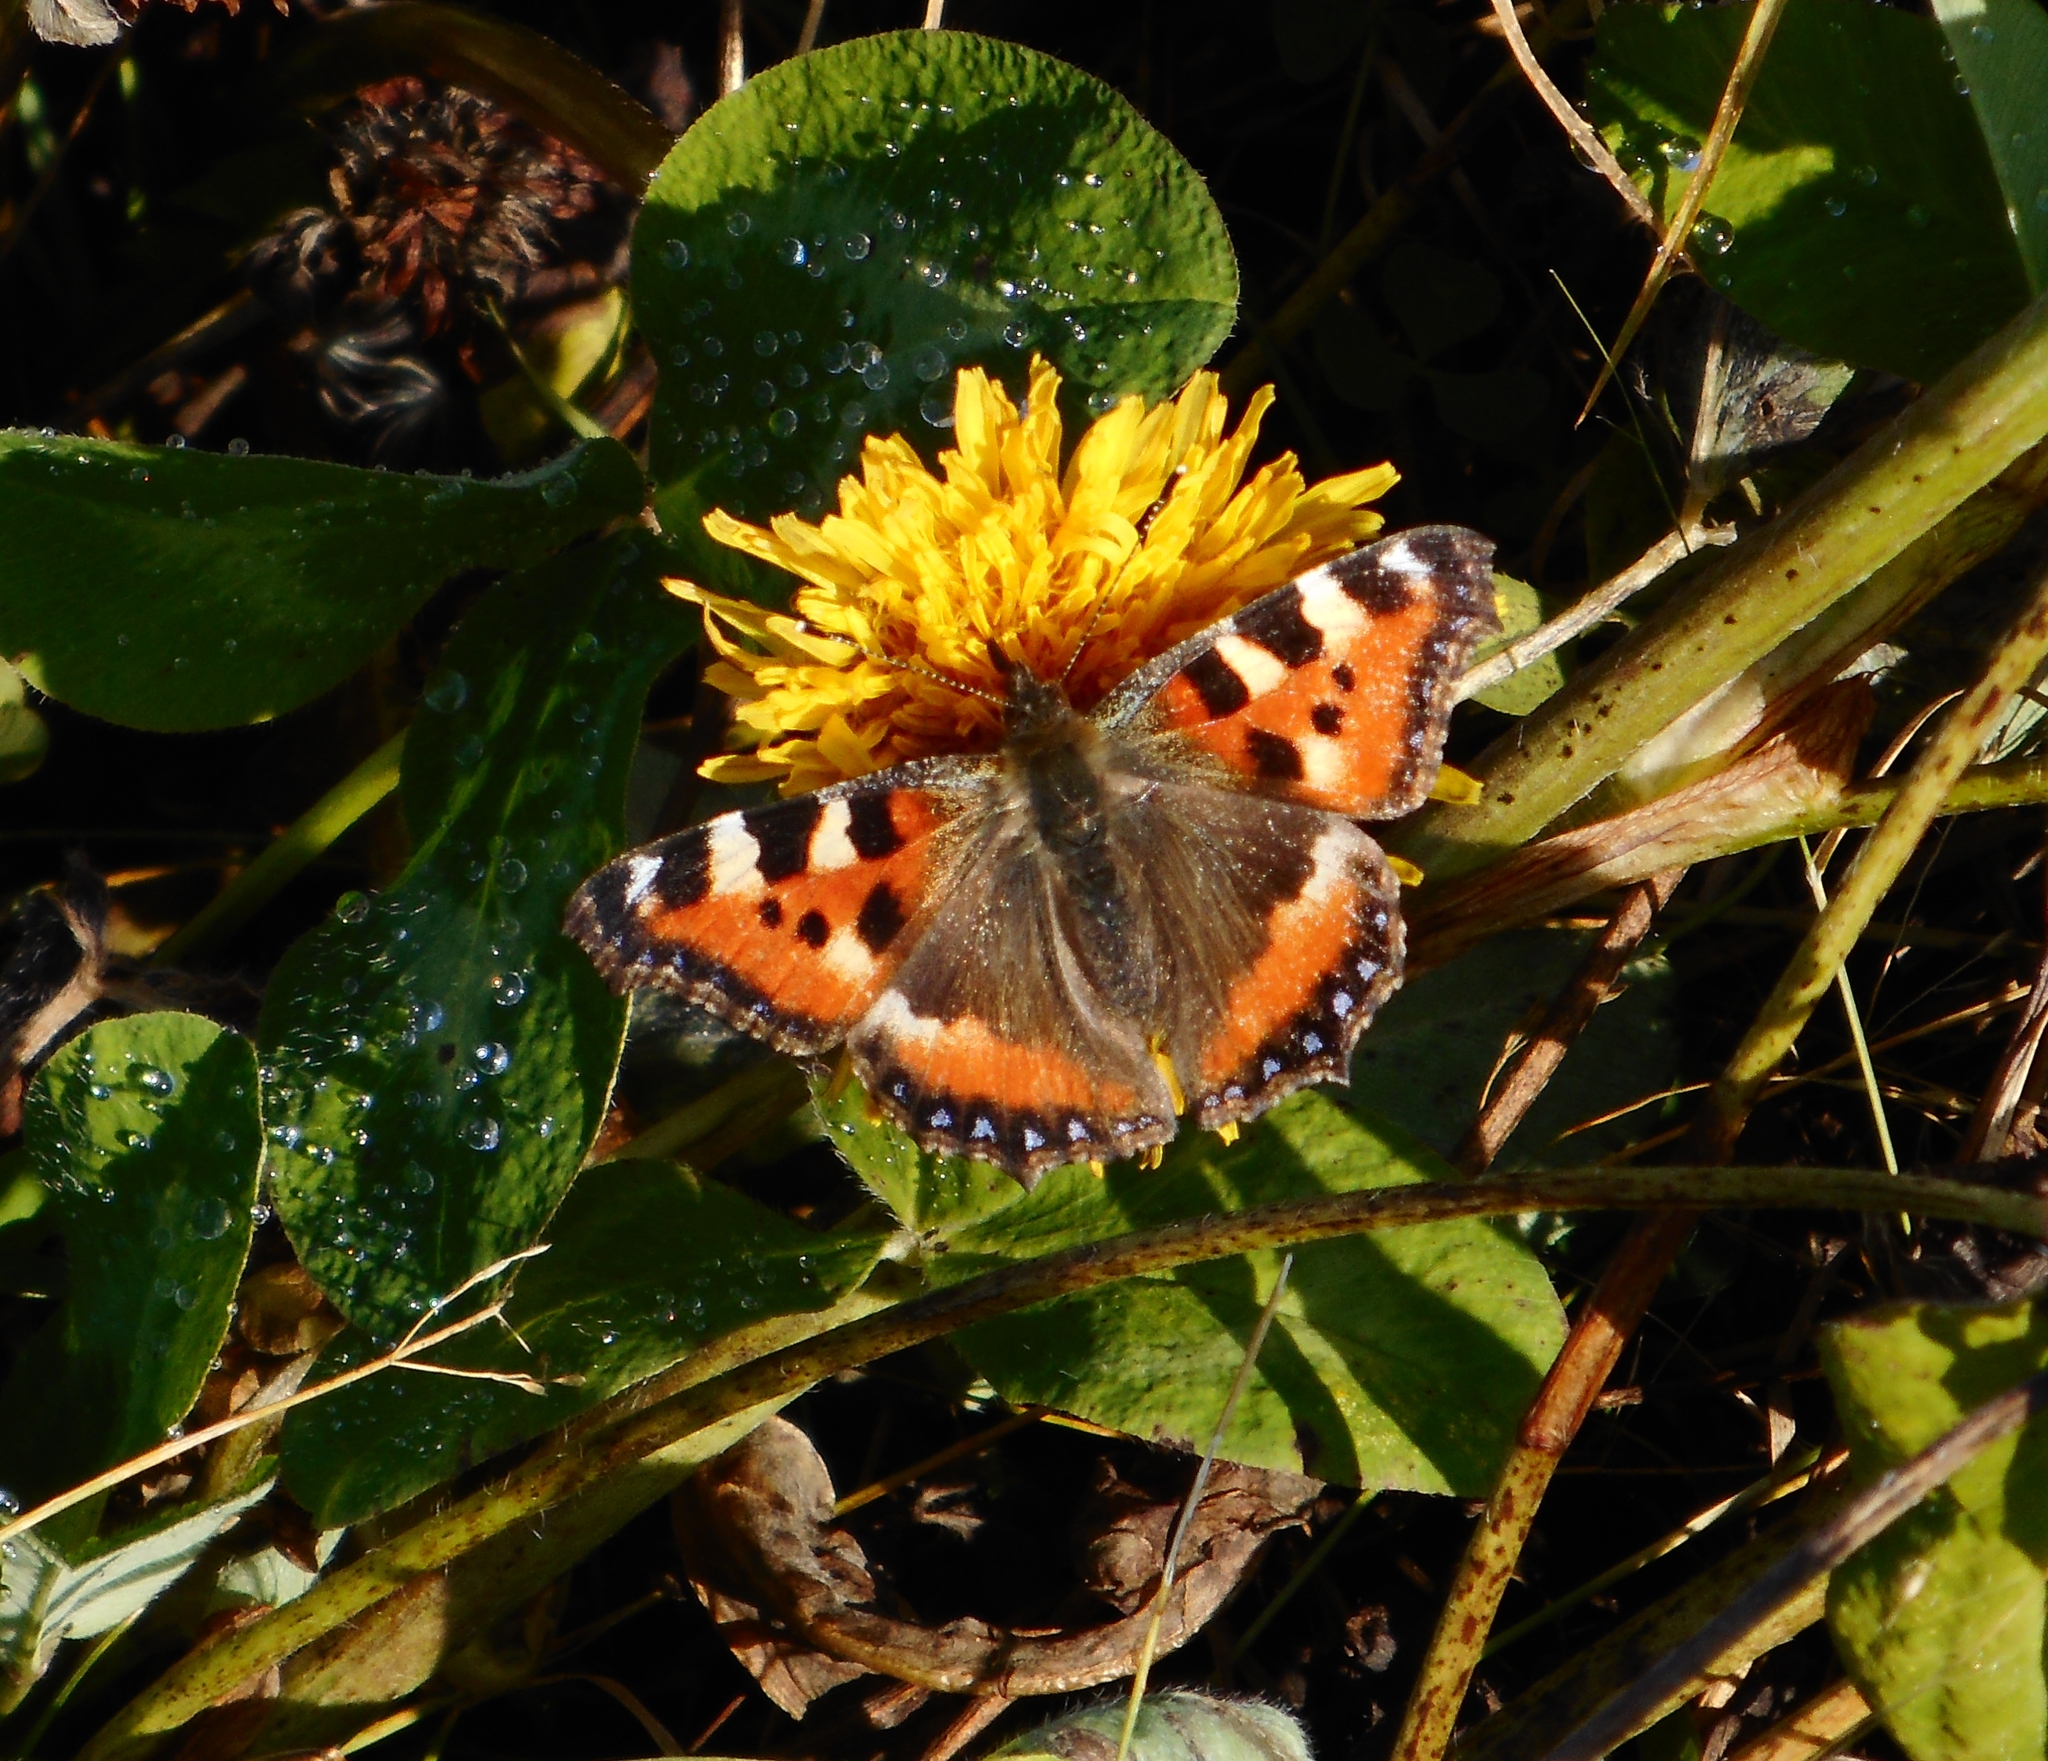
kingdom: Animalia
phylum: Arthropoda
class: Insecta
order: Lepidoptera
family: Nymphalidae
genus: Aglais
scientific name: Aglais urticae
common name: Small tortoiseshell
